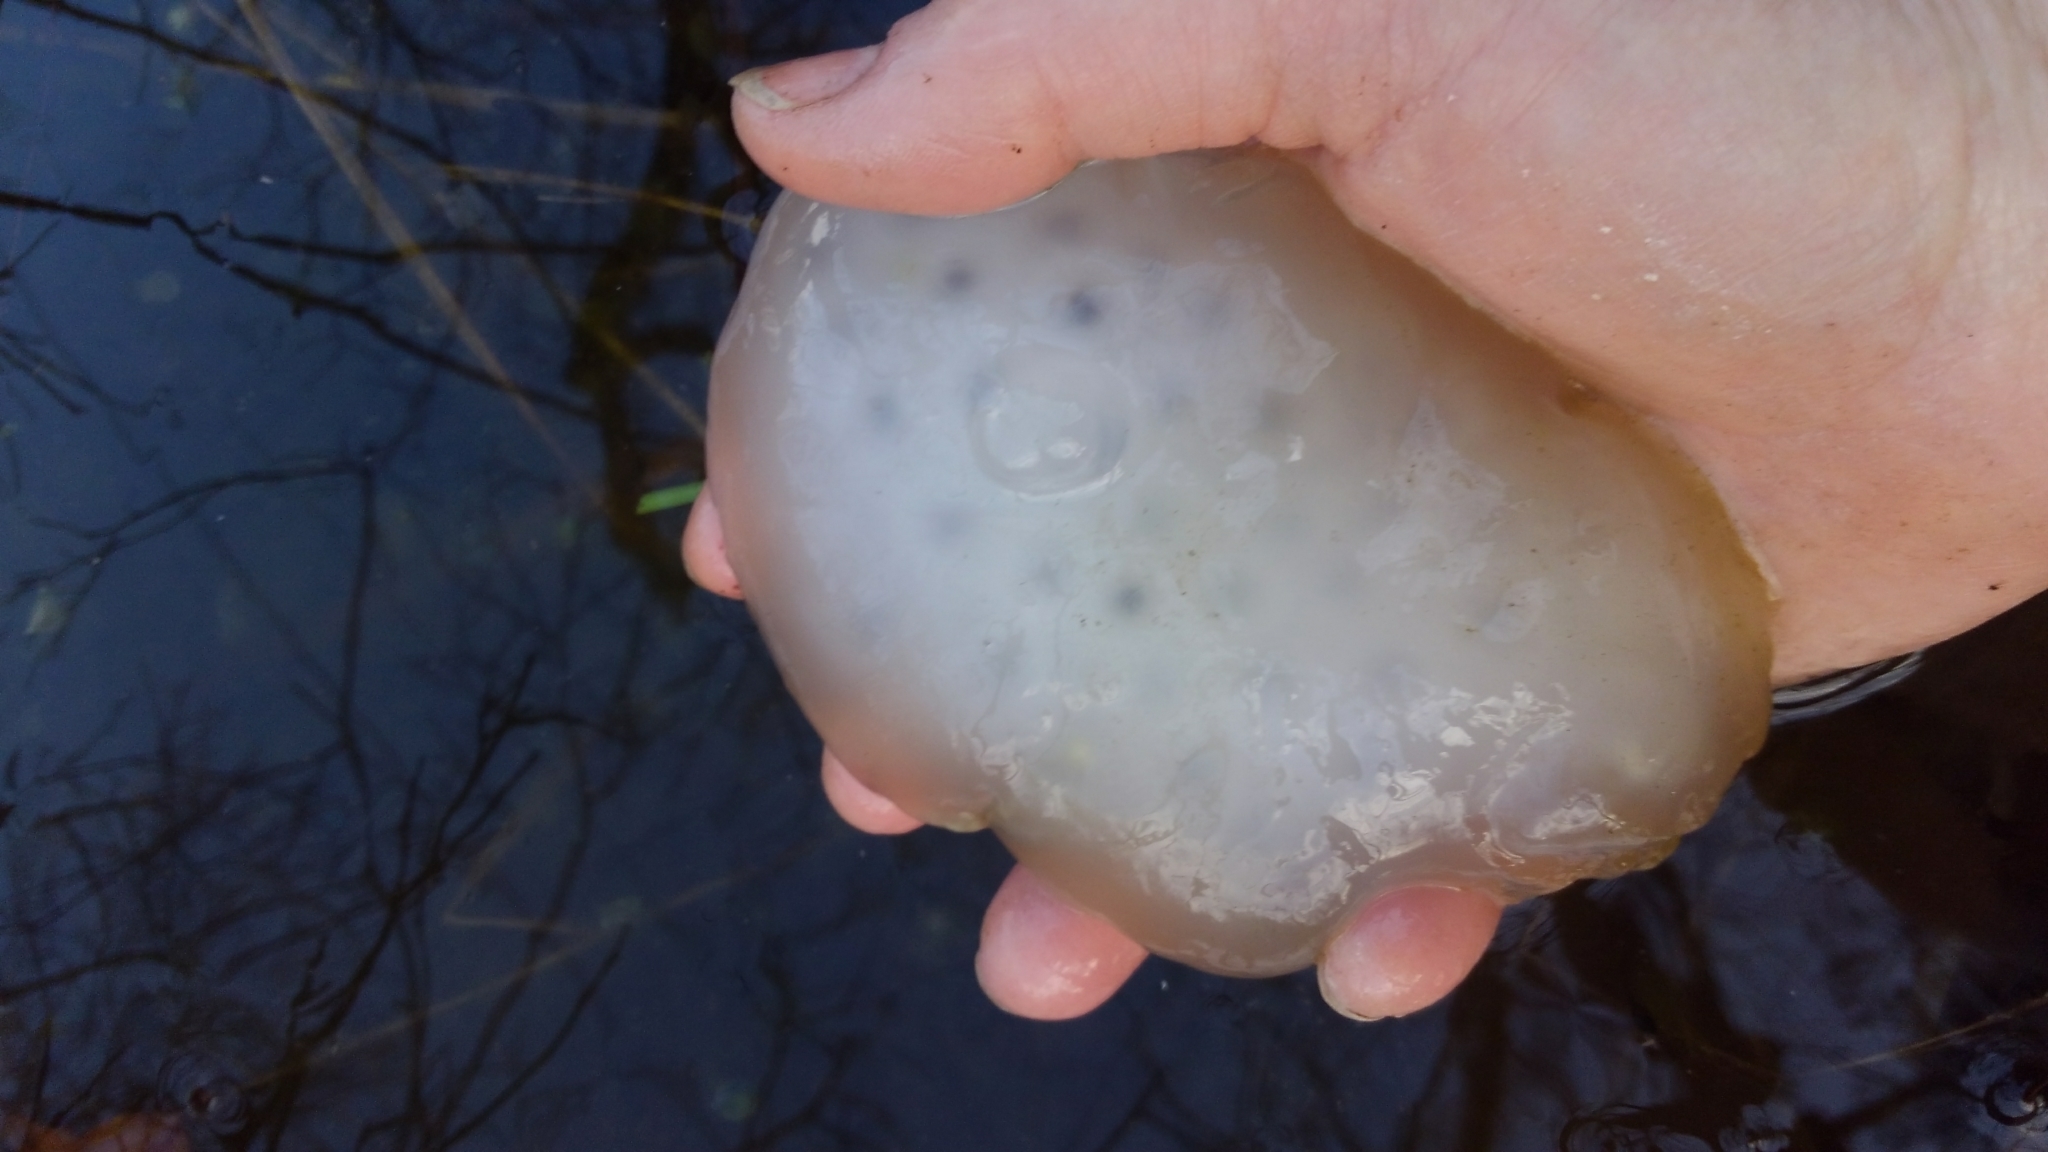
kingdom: Animalia
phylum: Chordata
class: Amphibia
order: Caudata
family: Ambystomatidae
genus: Ambystoma
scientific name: Ambystoma maculatum
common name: Spotted salamander
